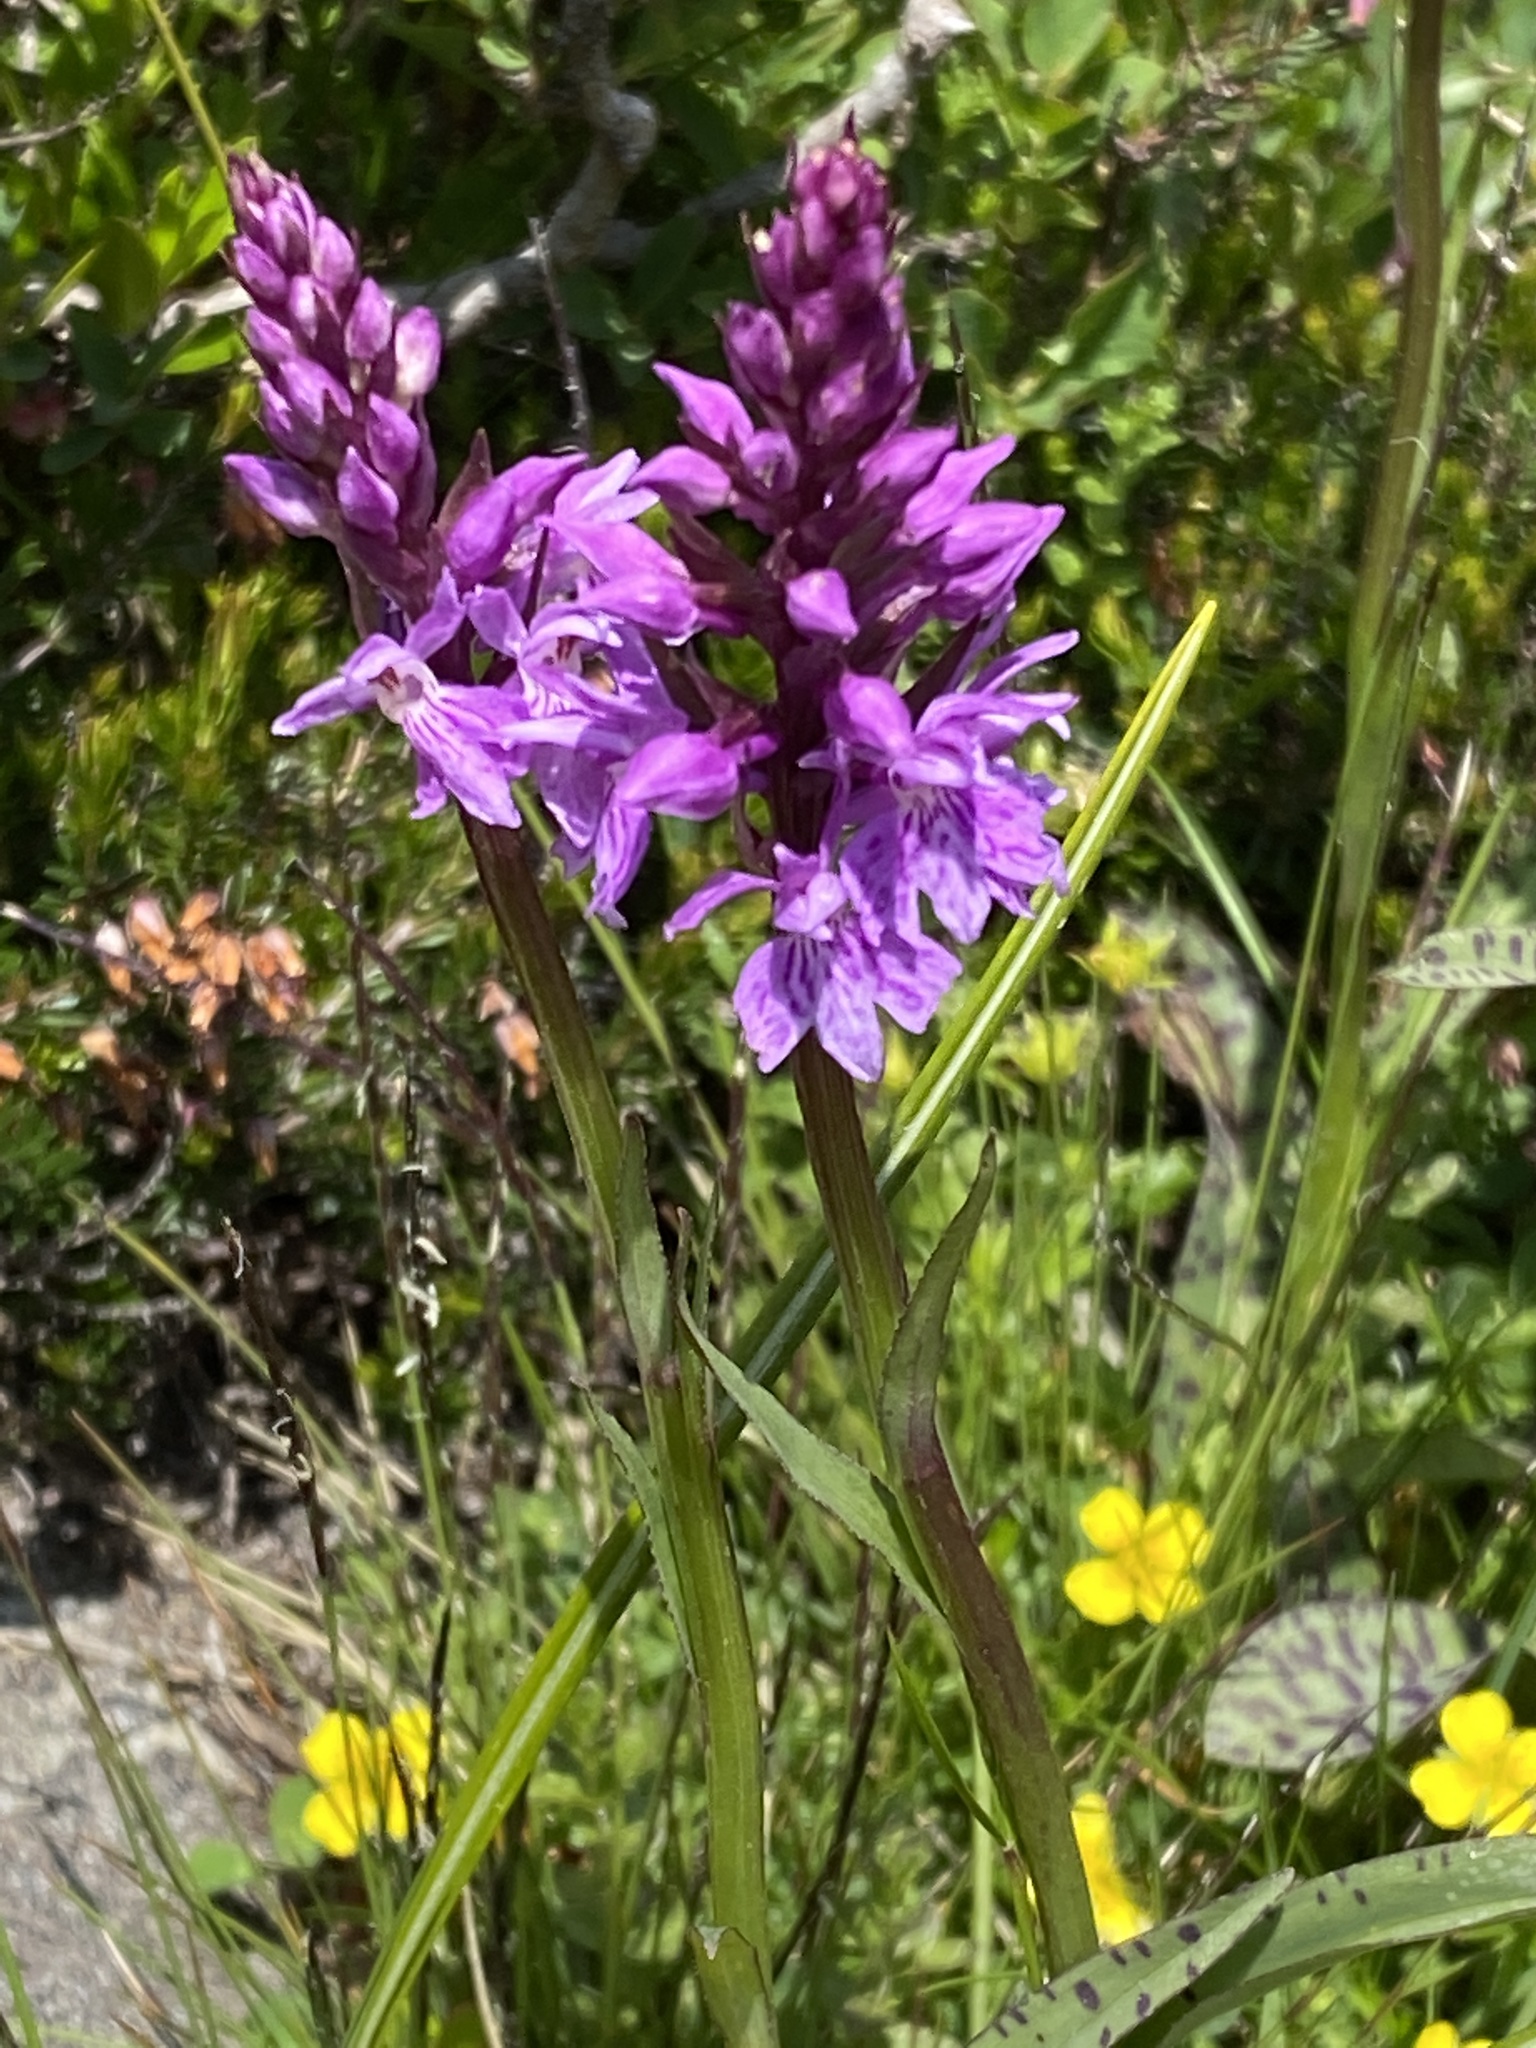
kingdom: Plantae
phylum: Tracheophyta
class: Liliopsida
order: Asparagales
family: Orchidaceae
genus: Dactylorhiza
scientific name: Dactylorhiza maculata
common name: Heath spotted-orchid
